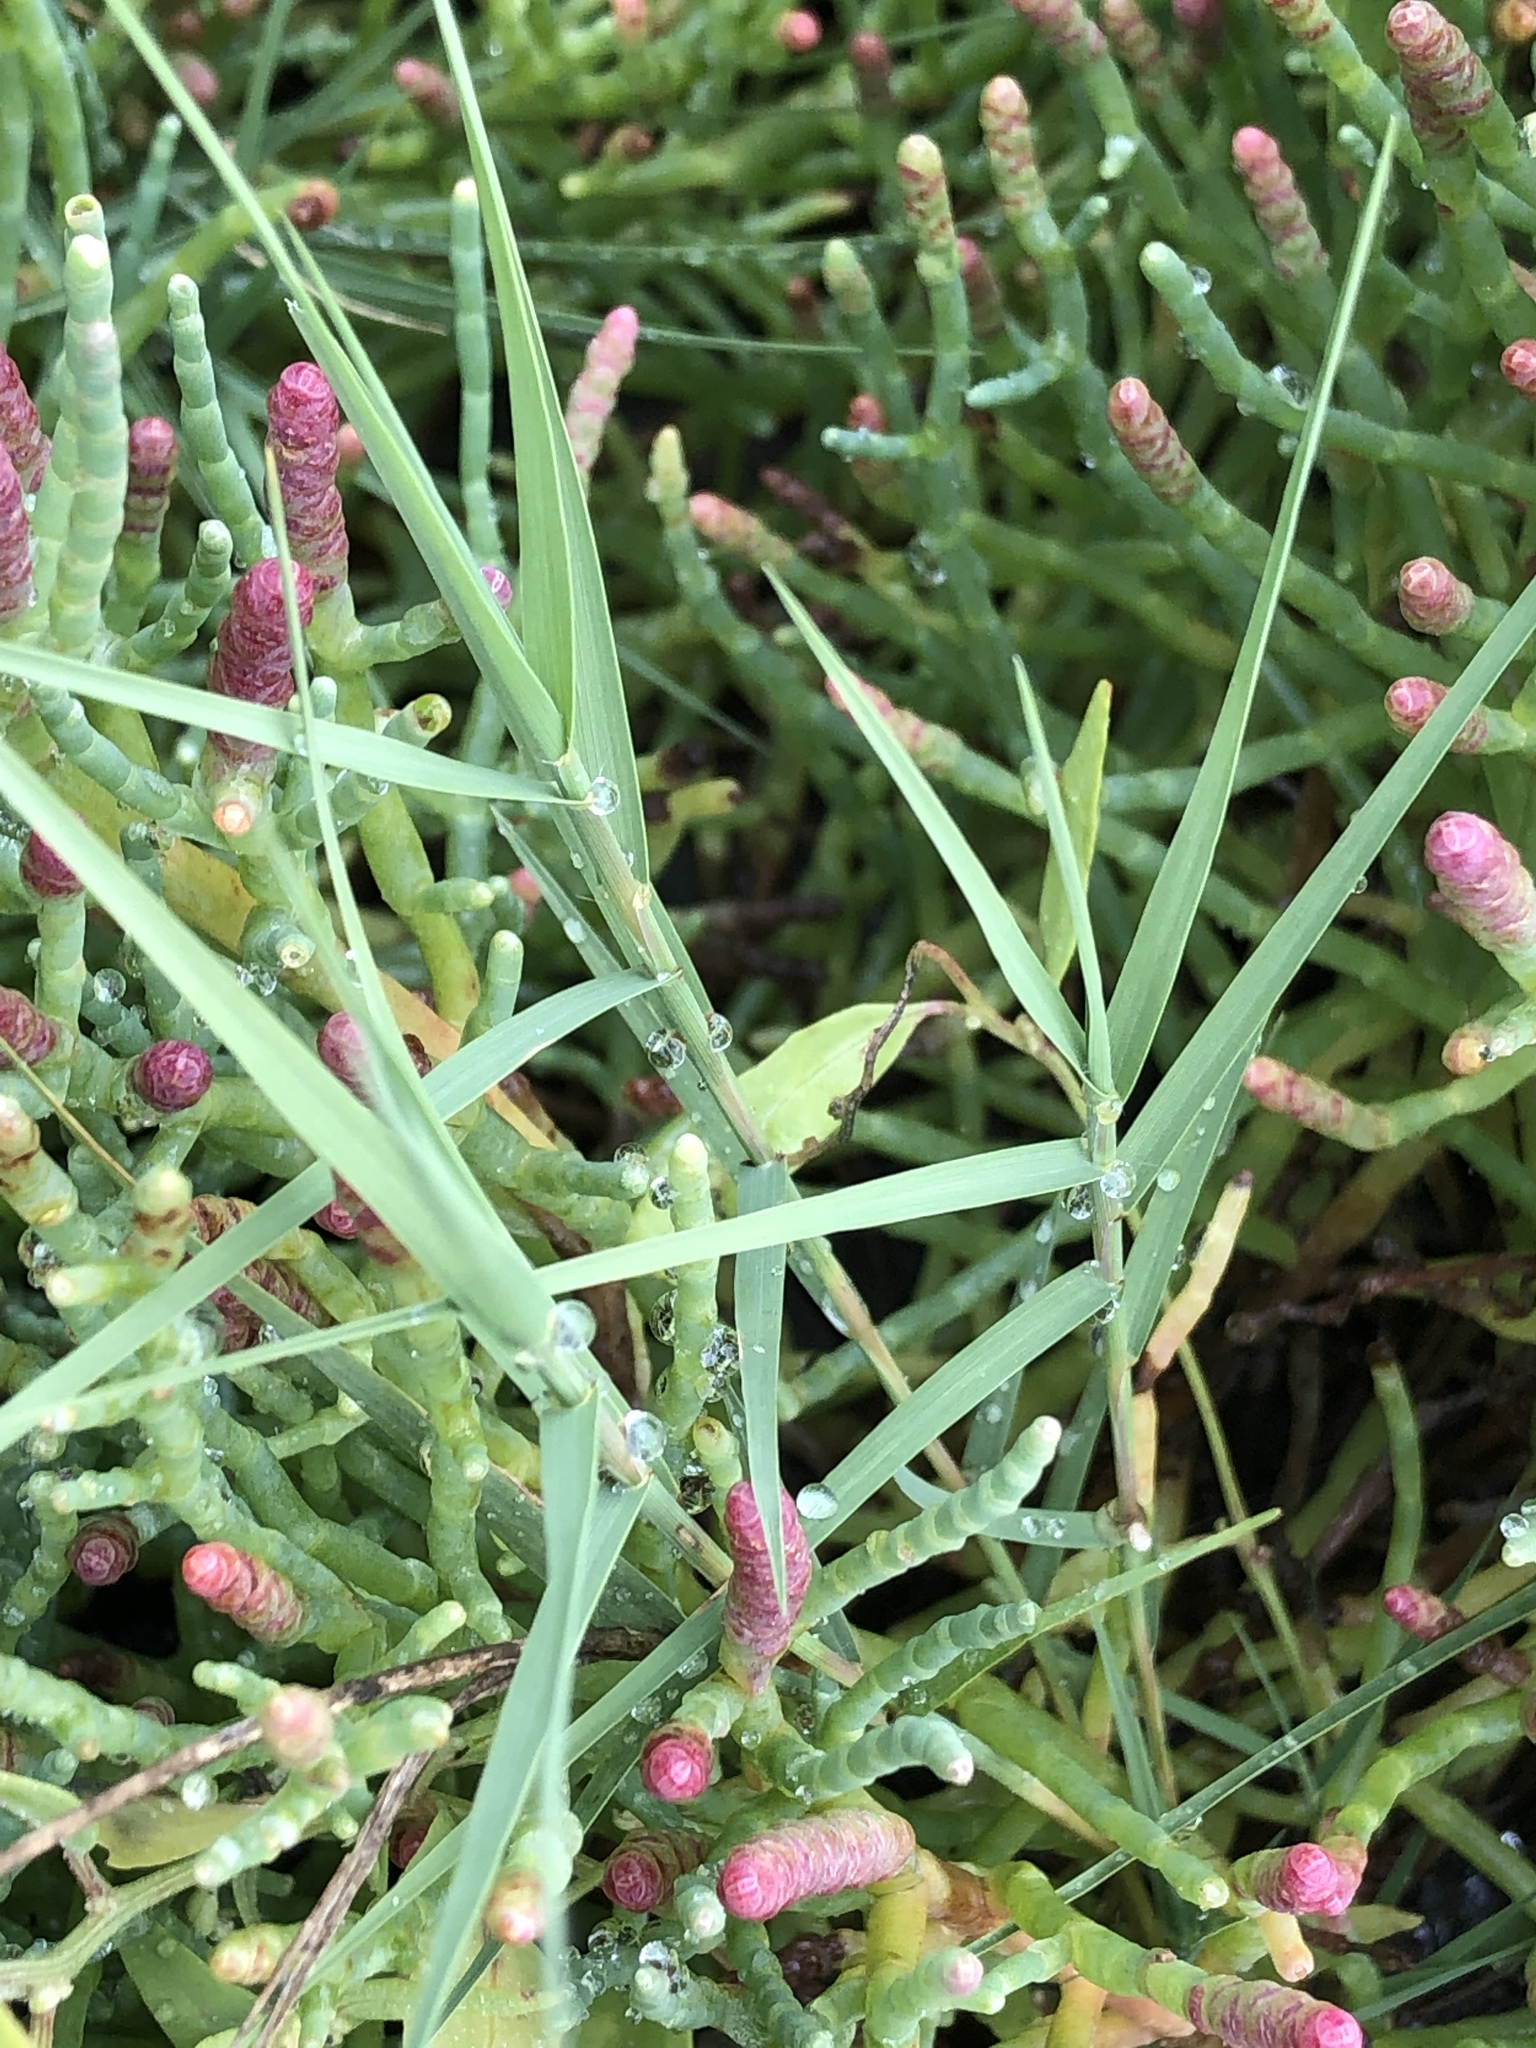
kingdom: Plantae
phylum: Tracheophyta
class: Liliopsida
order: Poales
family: Poaceae
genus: Distichlis
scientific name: Distichlis spicata
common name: Saltgrass
